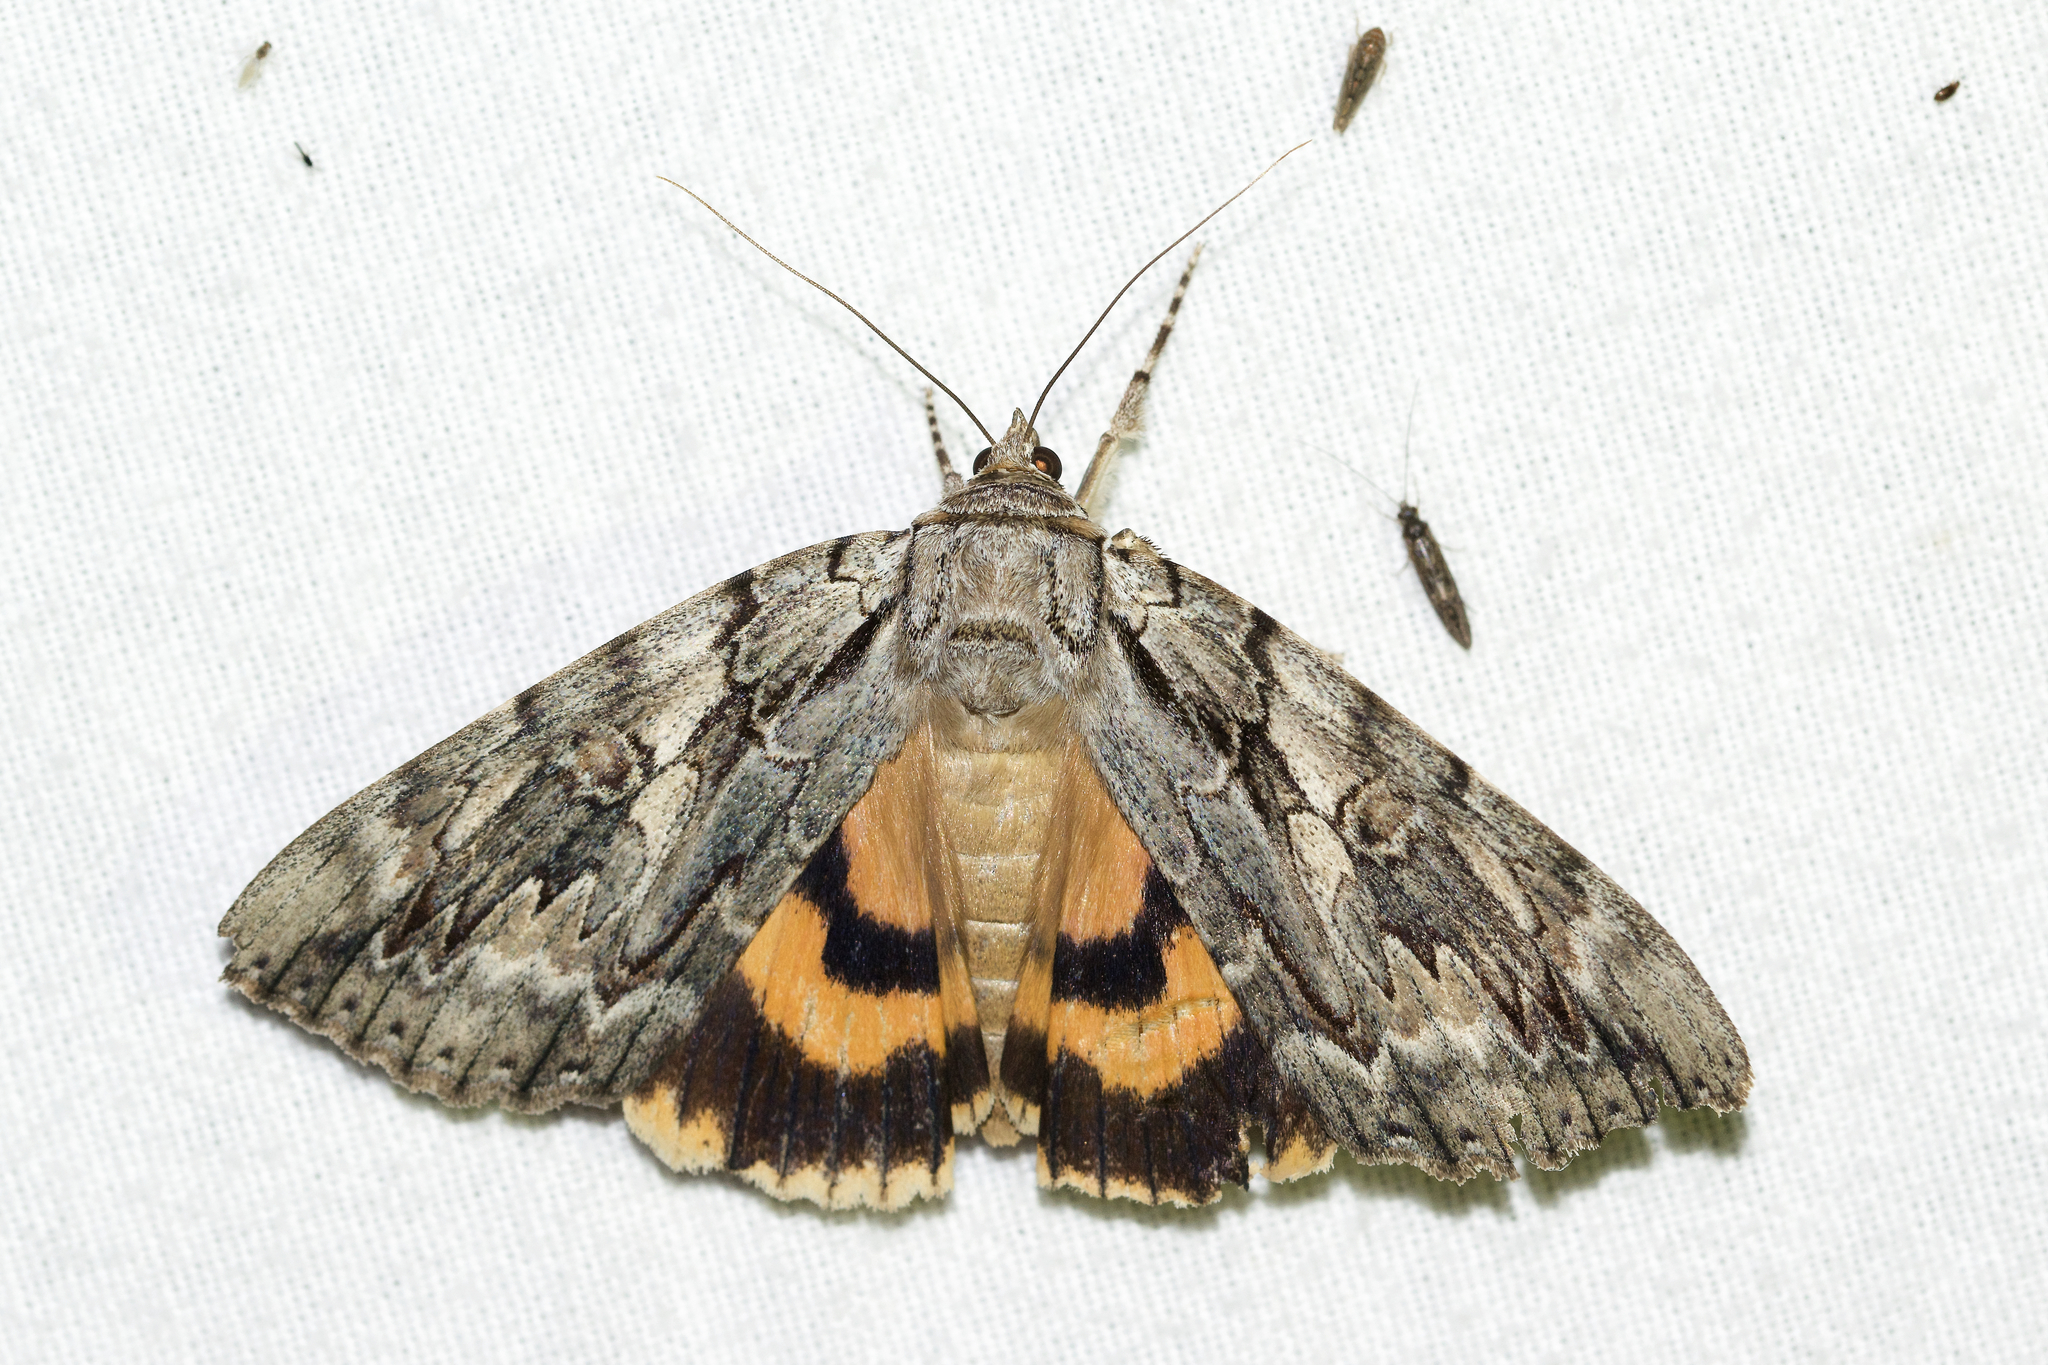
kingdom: Animalia
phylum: Arthropoda
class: Insecta
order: Lepidoptera
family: Erebidae
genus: Catocala
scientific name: Catocala subnata
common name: Youthful underwing
